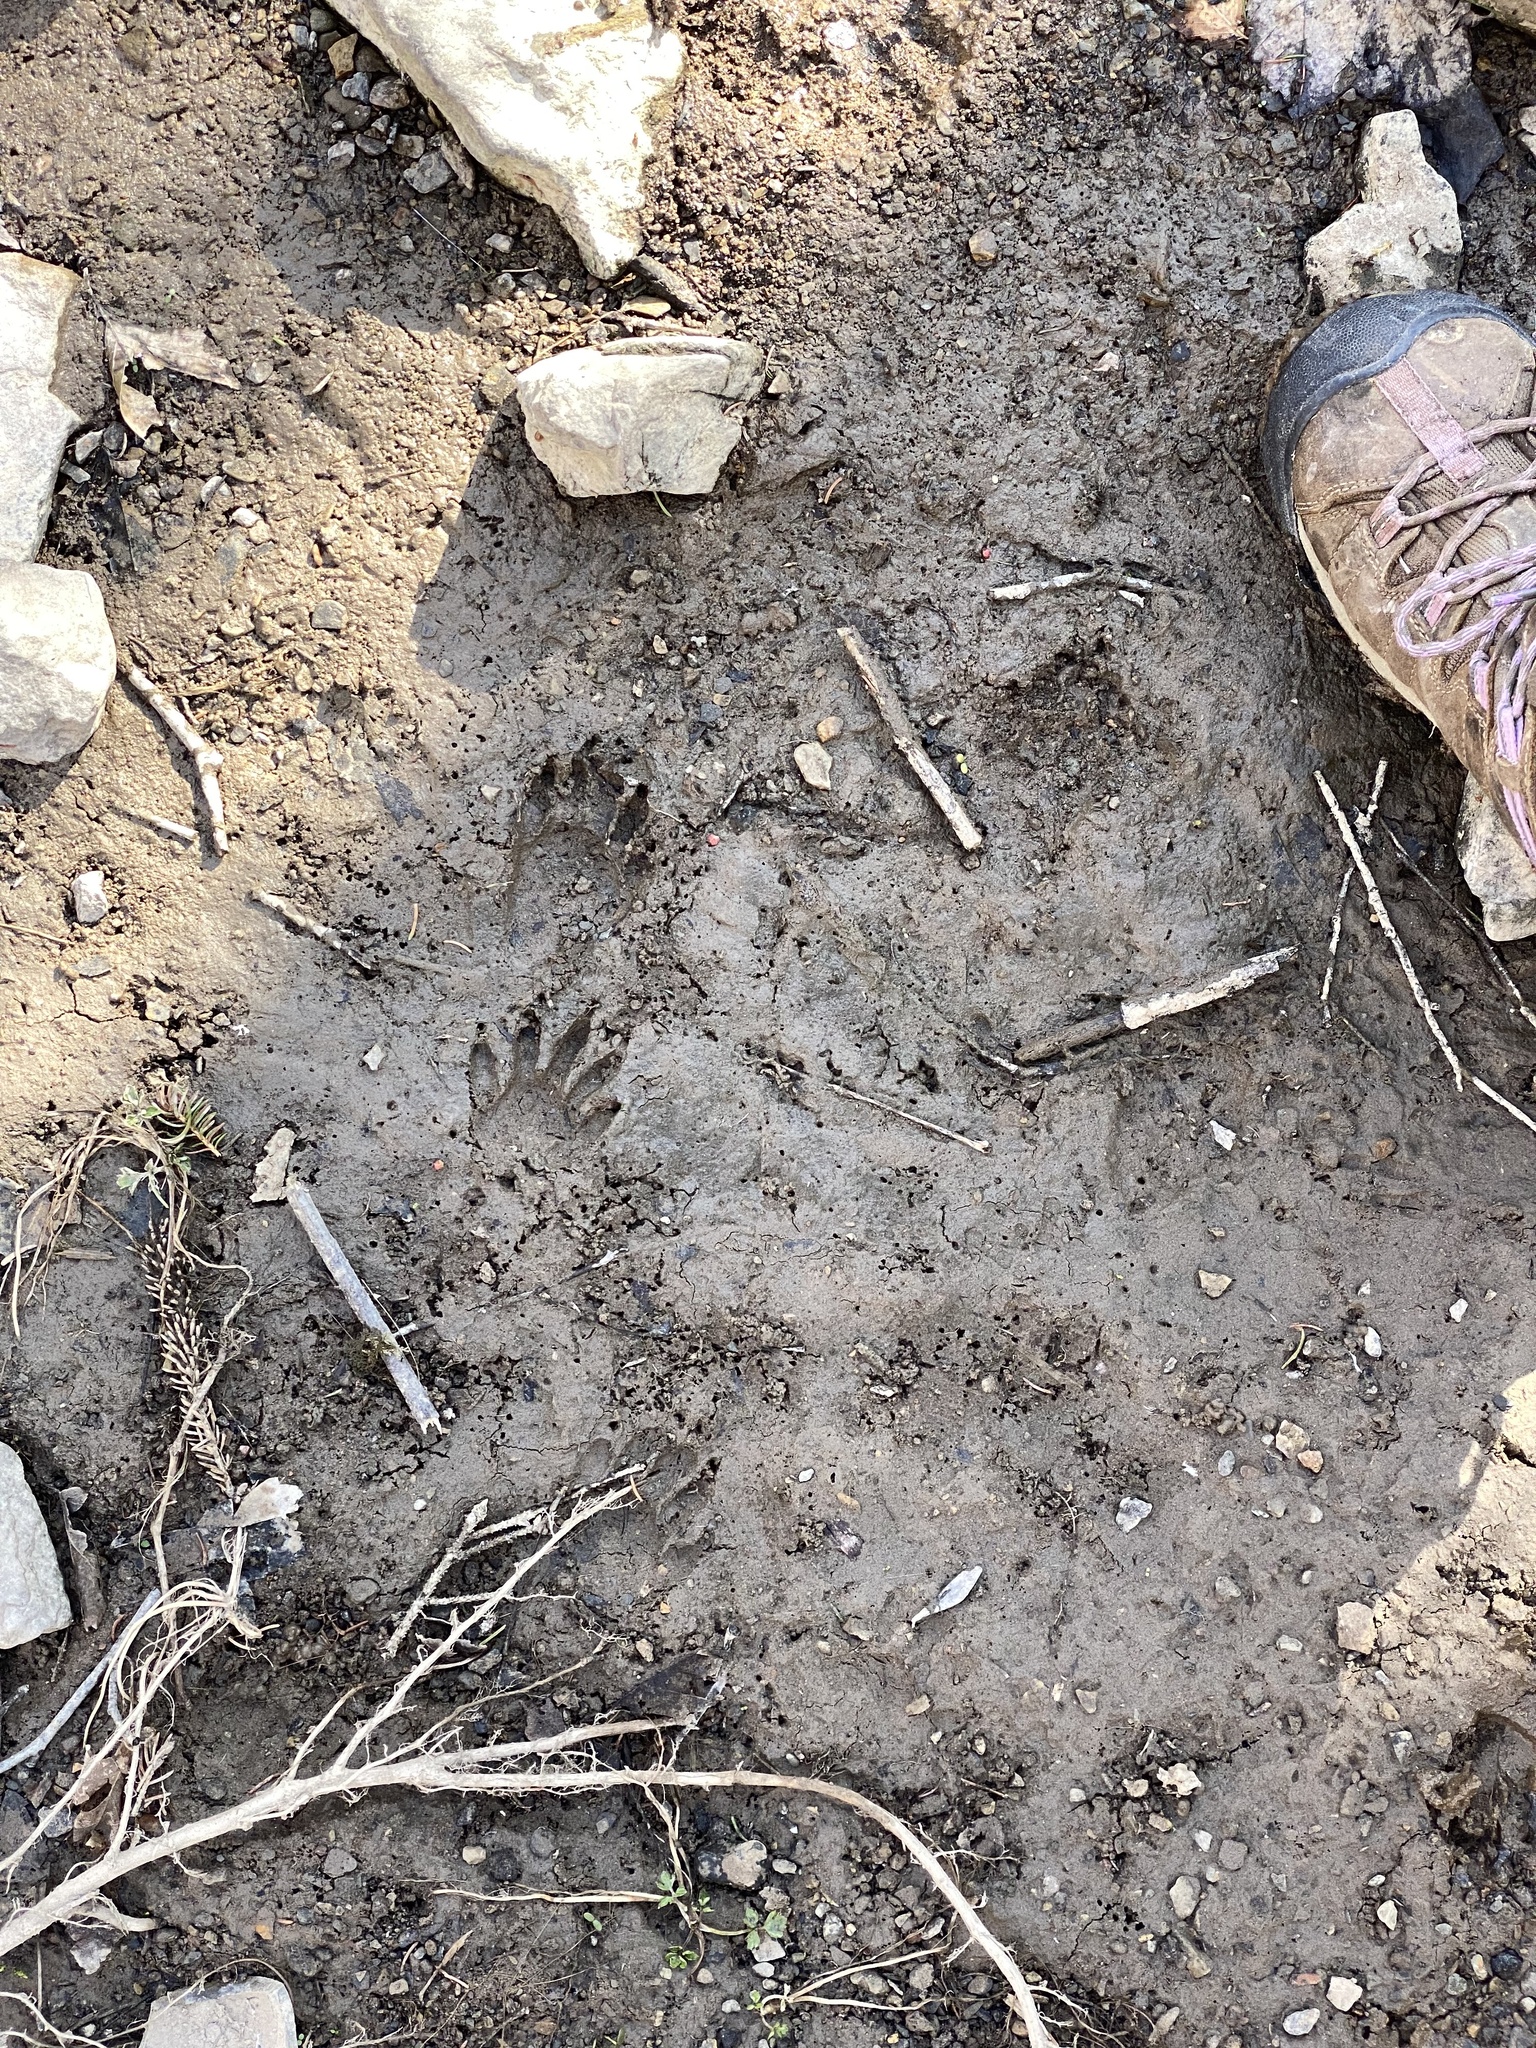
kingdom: Animalia
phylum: Chordata
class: Mammalia
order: Carnivora
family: Procyonidae
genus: Procyon
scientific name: Procyon lotor
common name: Raccoon
